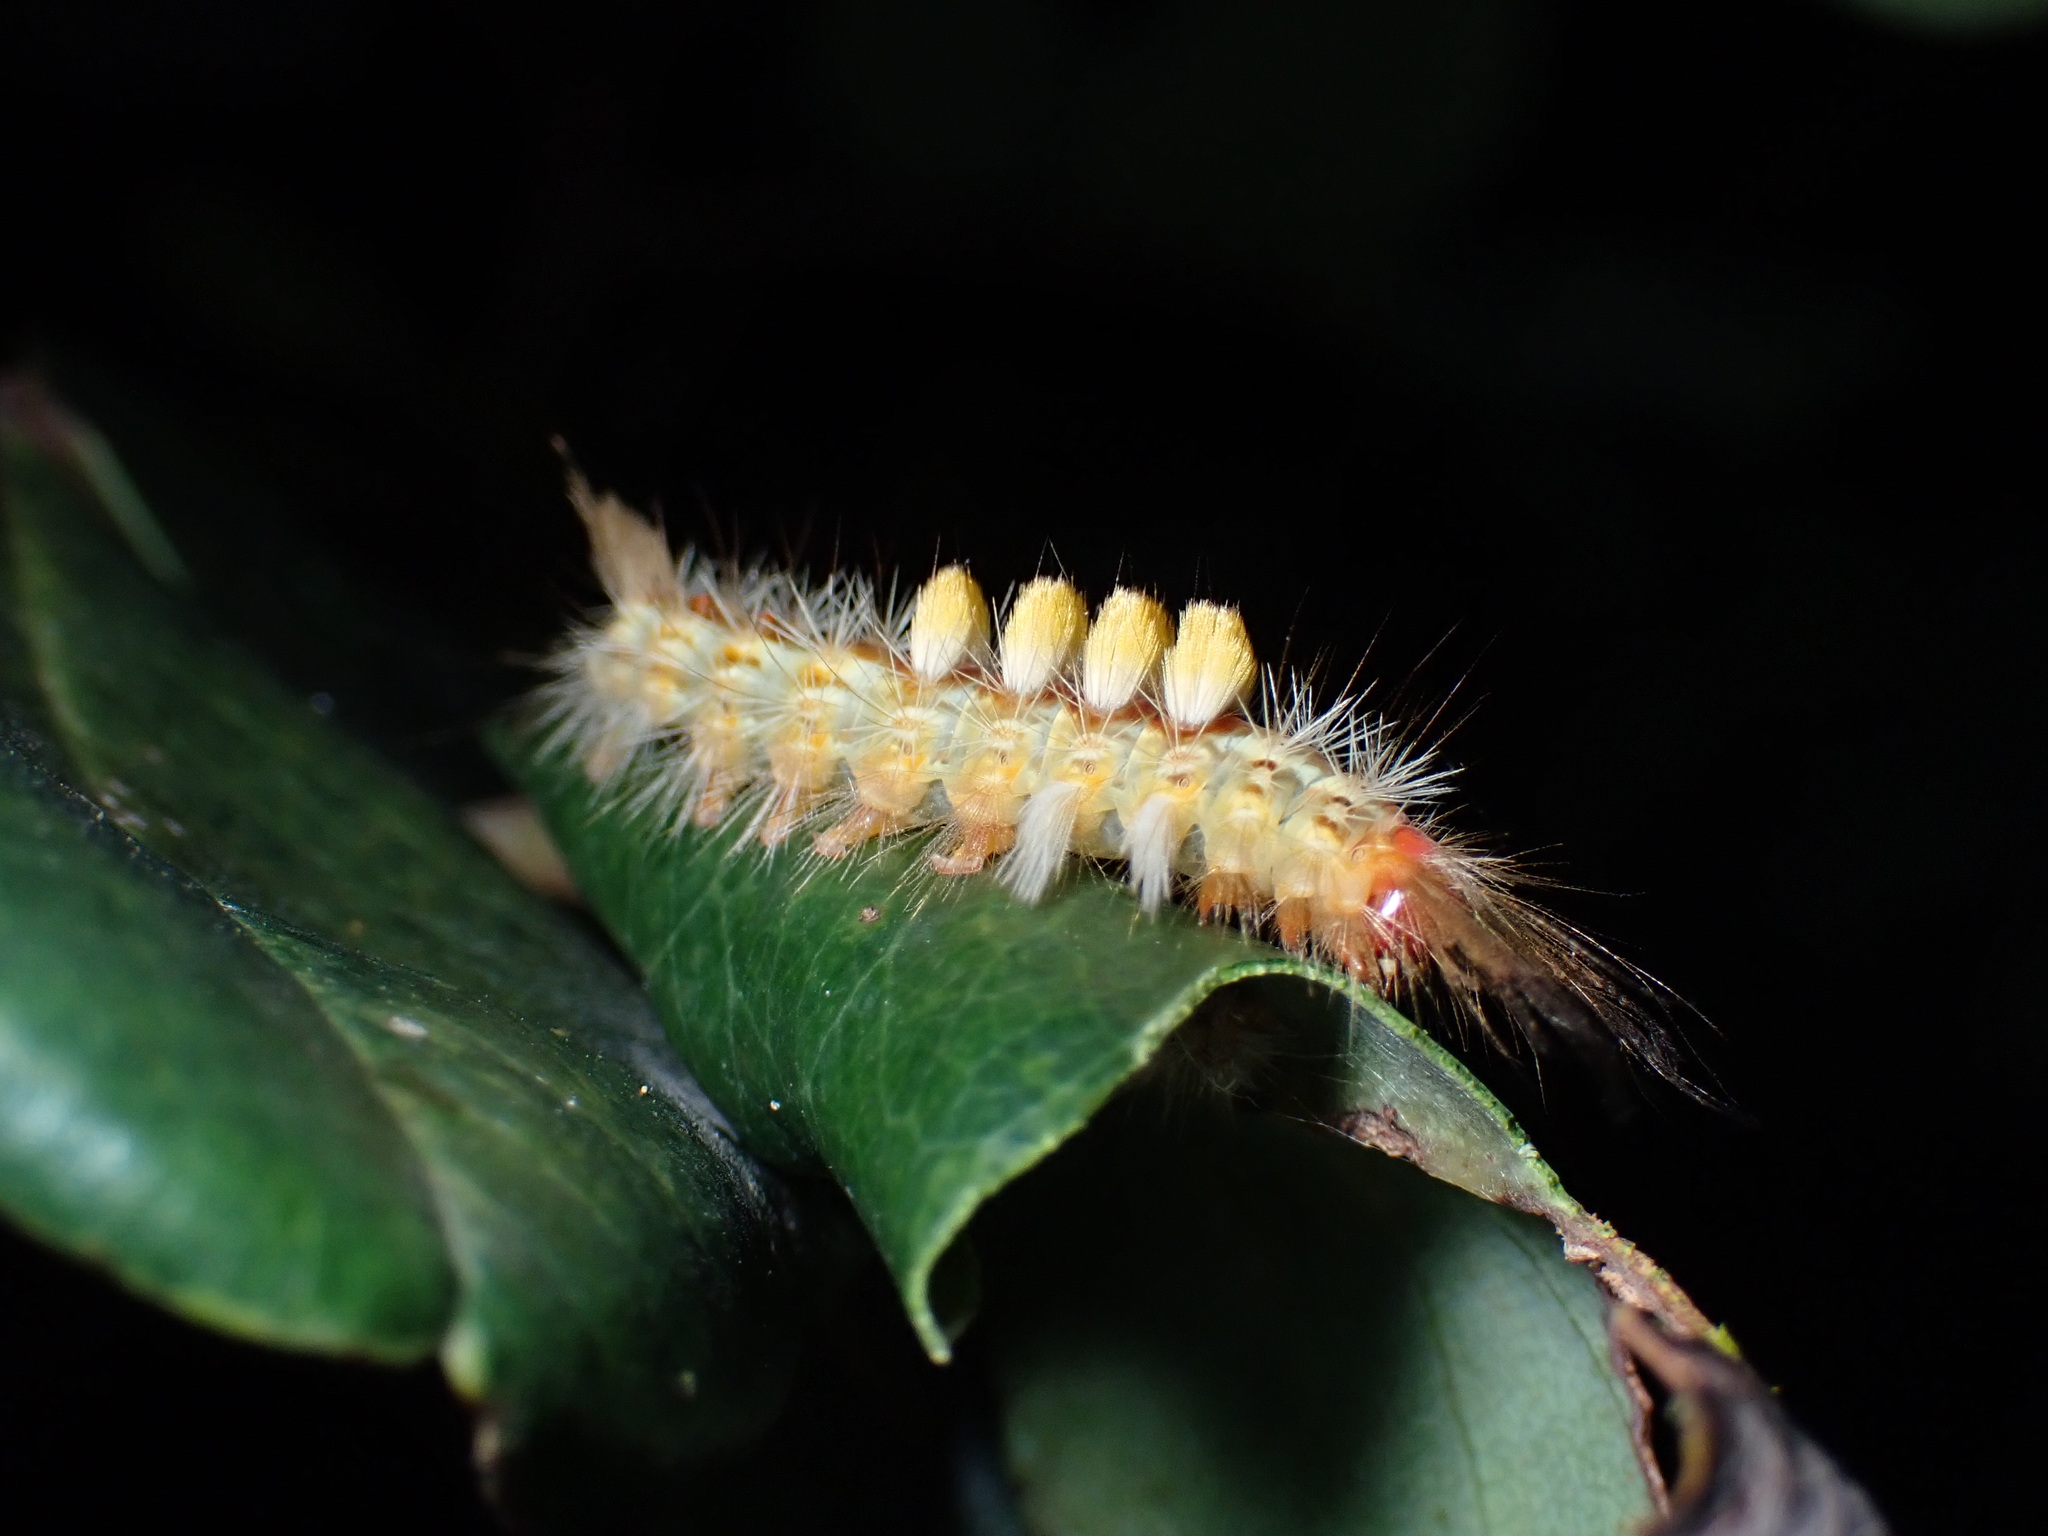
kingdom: Animalia
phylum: Arthropoda
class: Insecta
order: Lepidoptera
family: Erebidae
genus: Orgyia
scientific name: Orgyia australis
